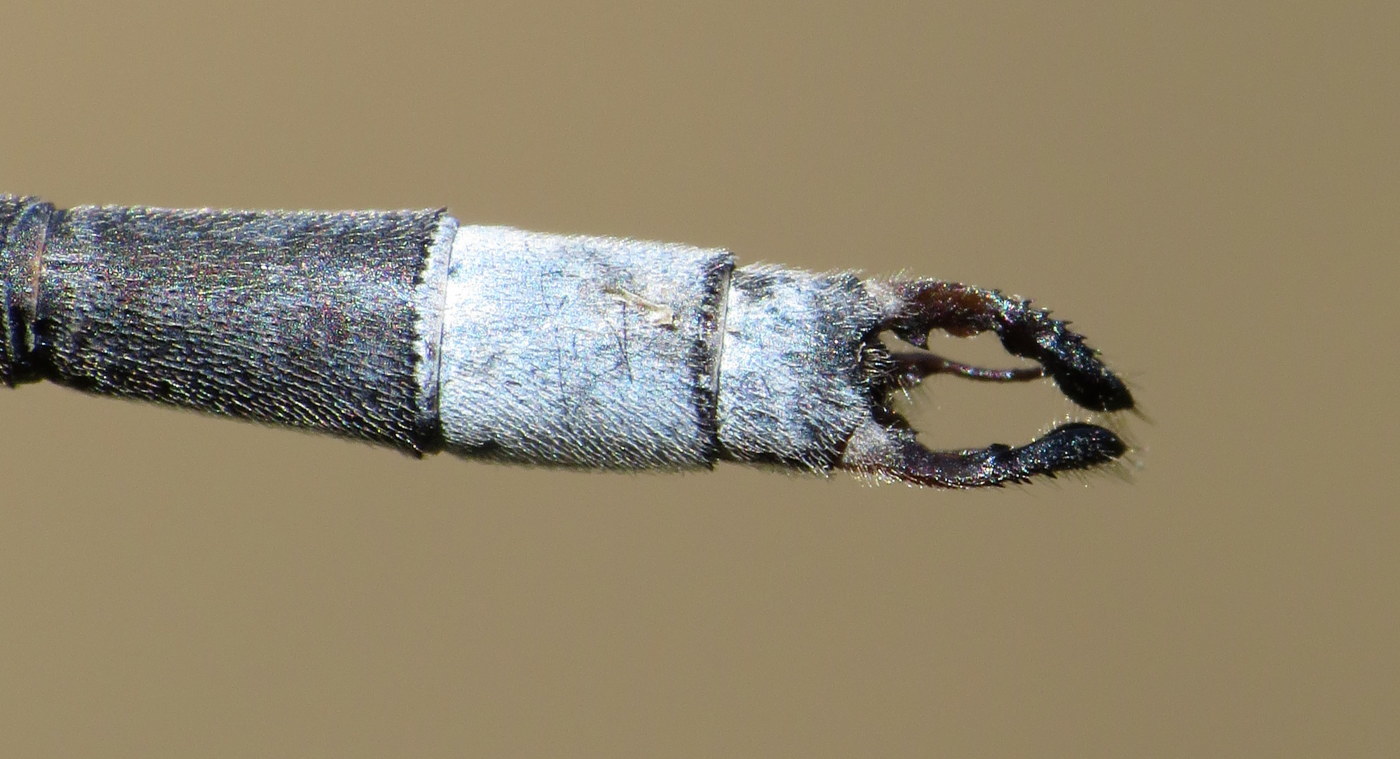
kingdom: Animalia
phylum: Arthropoda
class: Insecta
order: Odonata
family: Lestidae
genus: Lestes
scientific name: Lestes vigilax
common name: Swamp spreadwing
